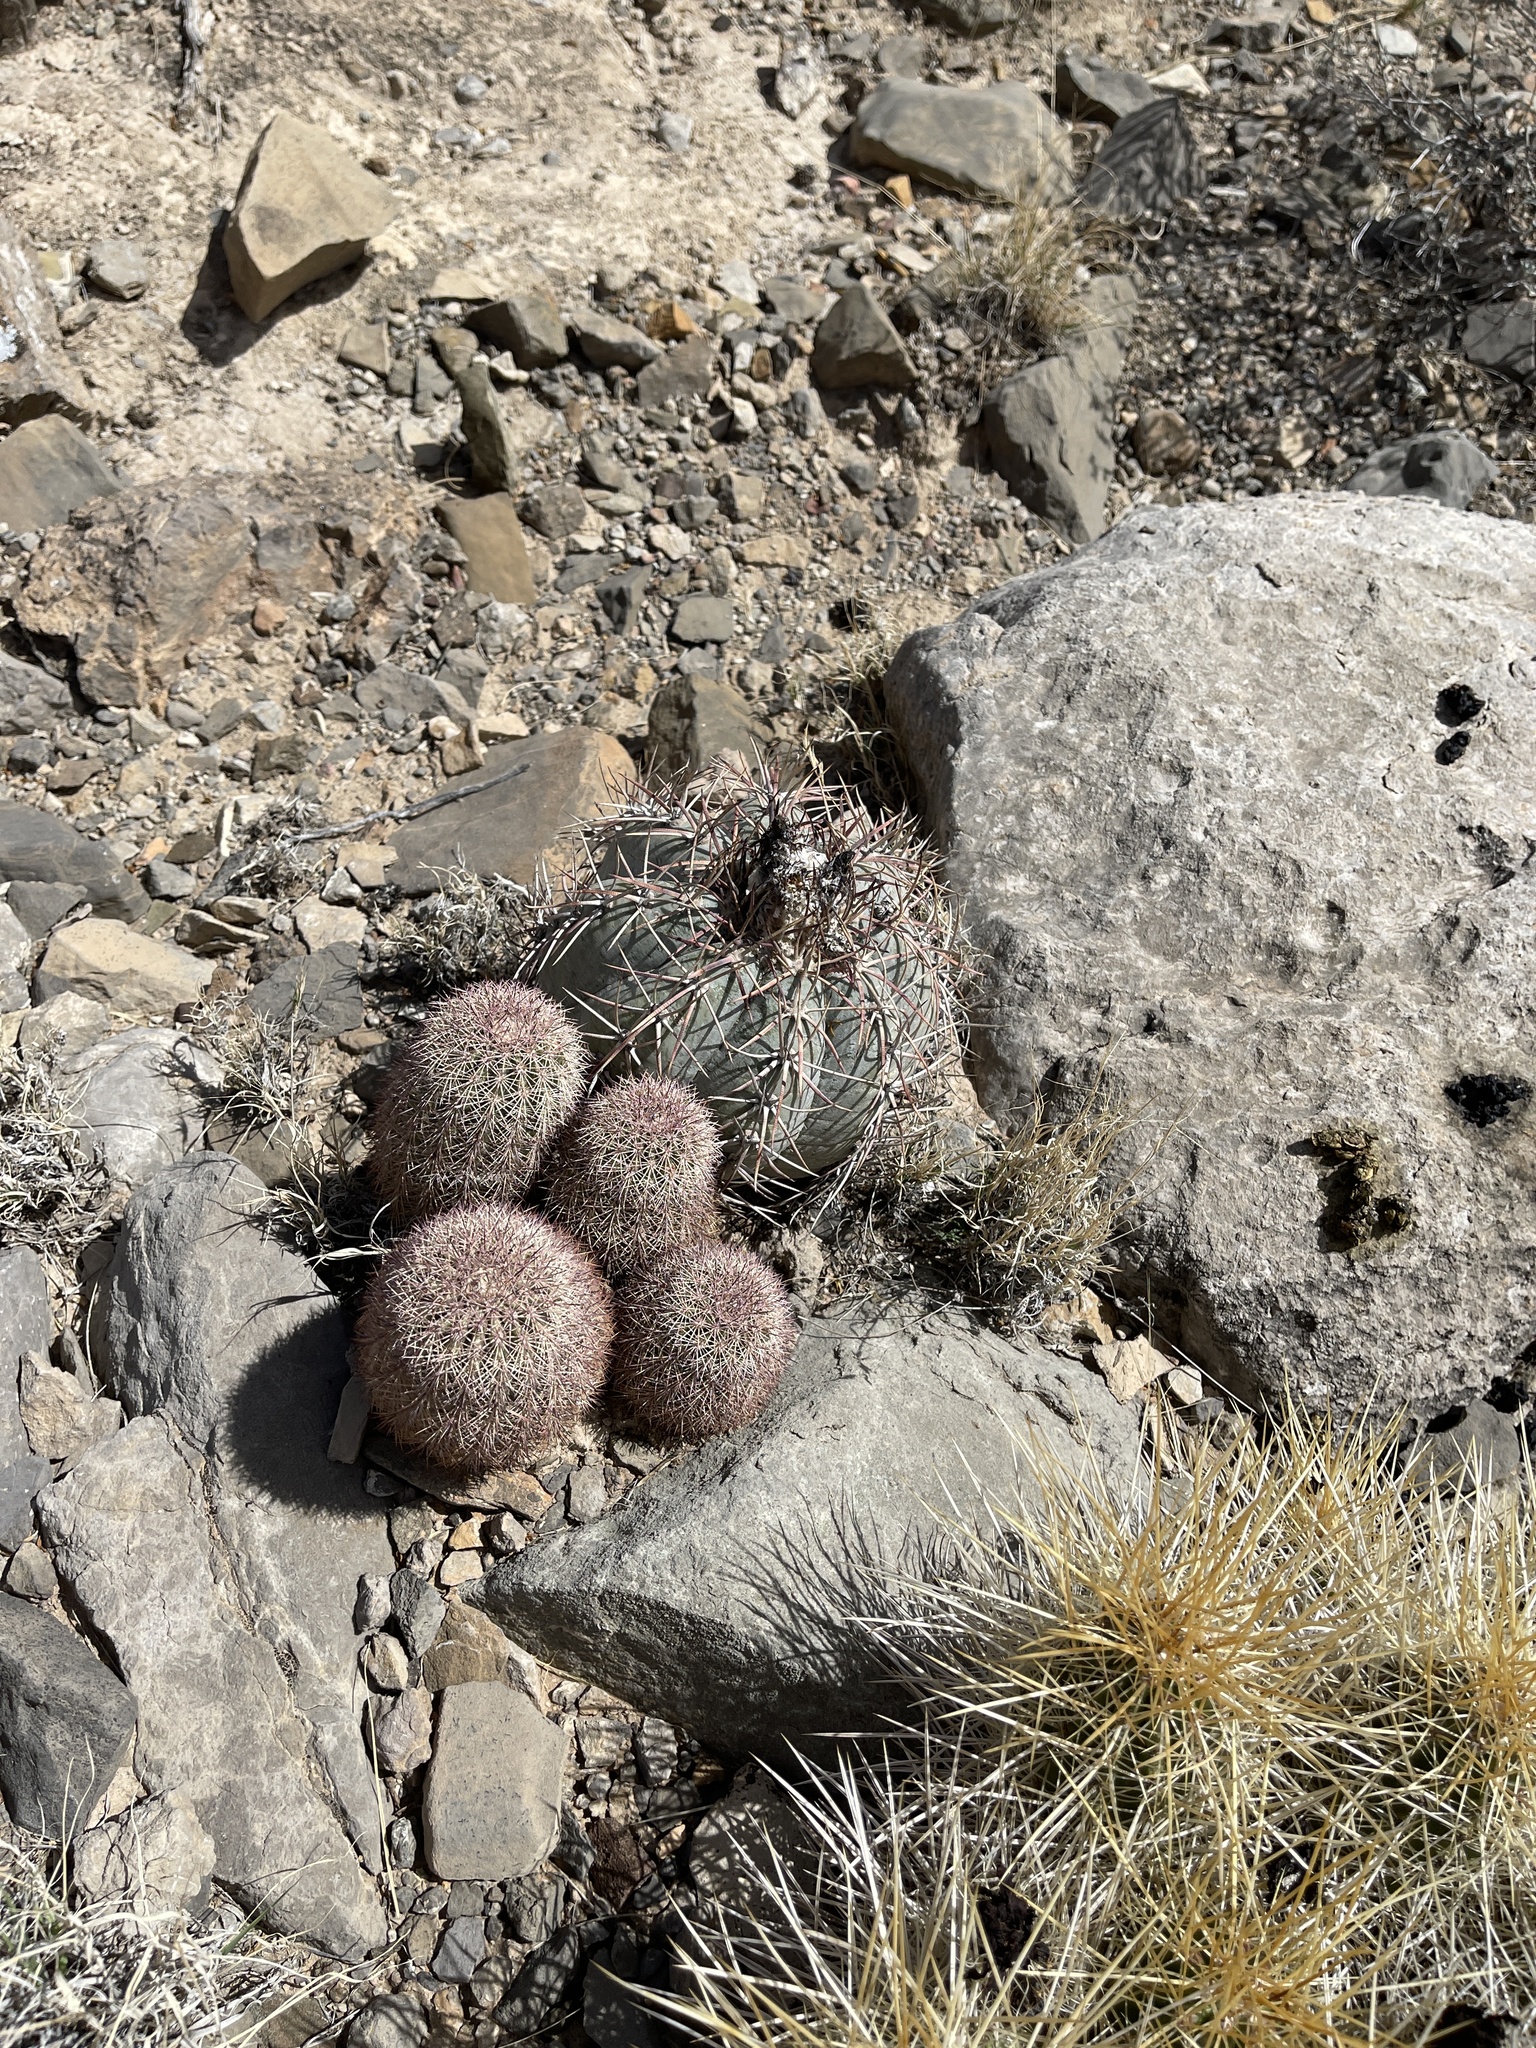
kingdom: Plantae
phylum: Tracheophyta
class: Magnoliopsida
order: Caryophyllales
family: Cactaceae
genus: Echinocactus
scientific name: Echinocactus horizonthalonius
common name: Devilshead
